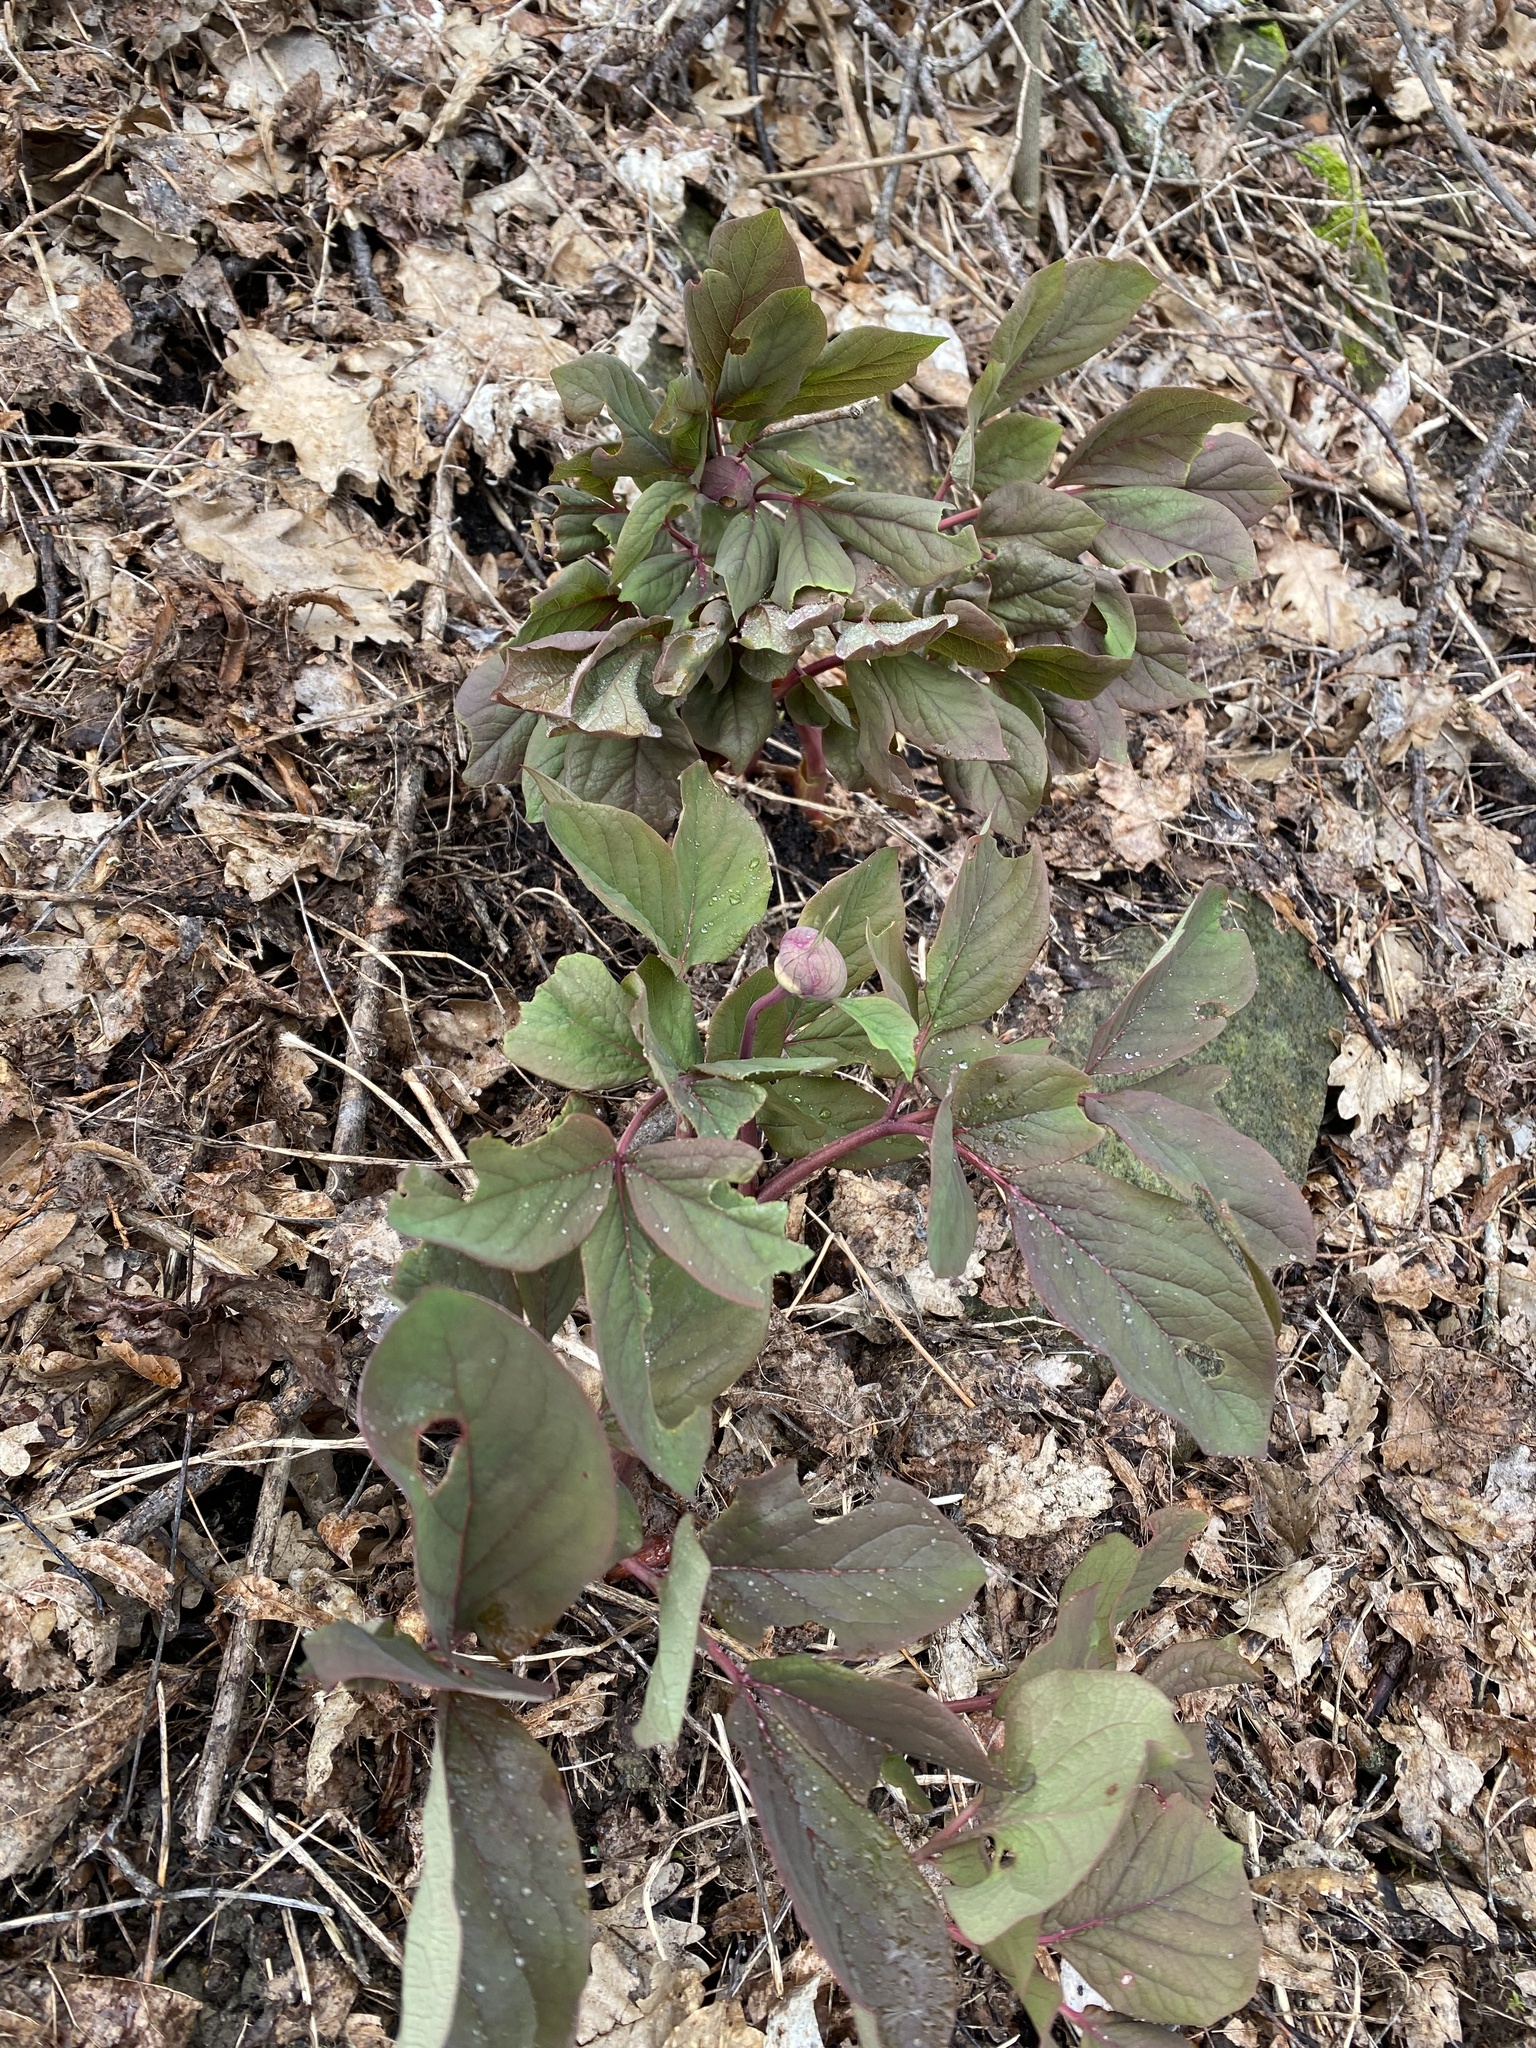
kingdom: Plantae
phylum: Tracheophyta
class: Magnoliopsida
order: Saxifragales
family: Paeoniaceae
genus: Paeonia
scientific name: Paeonia caucasica
